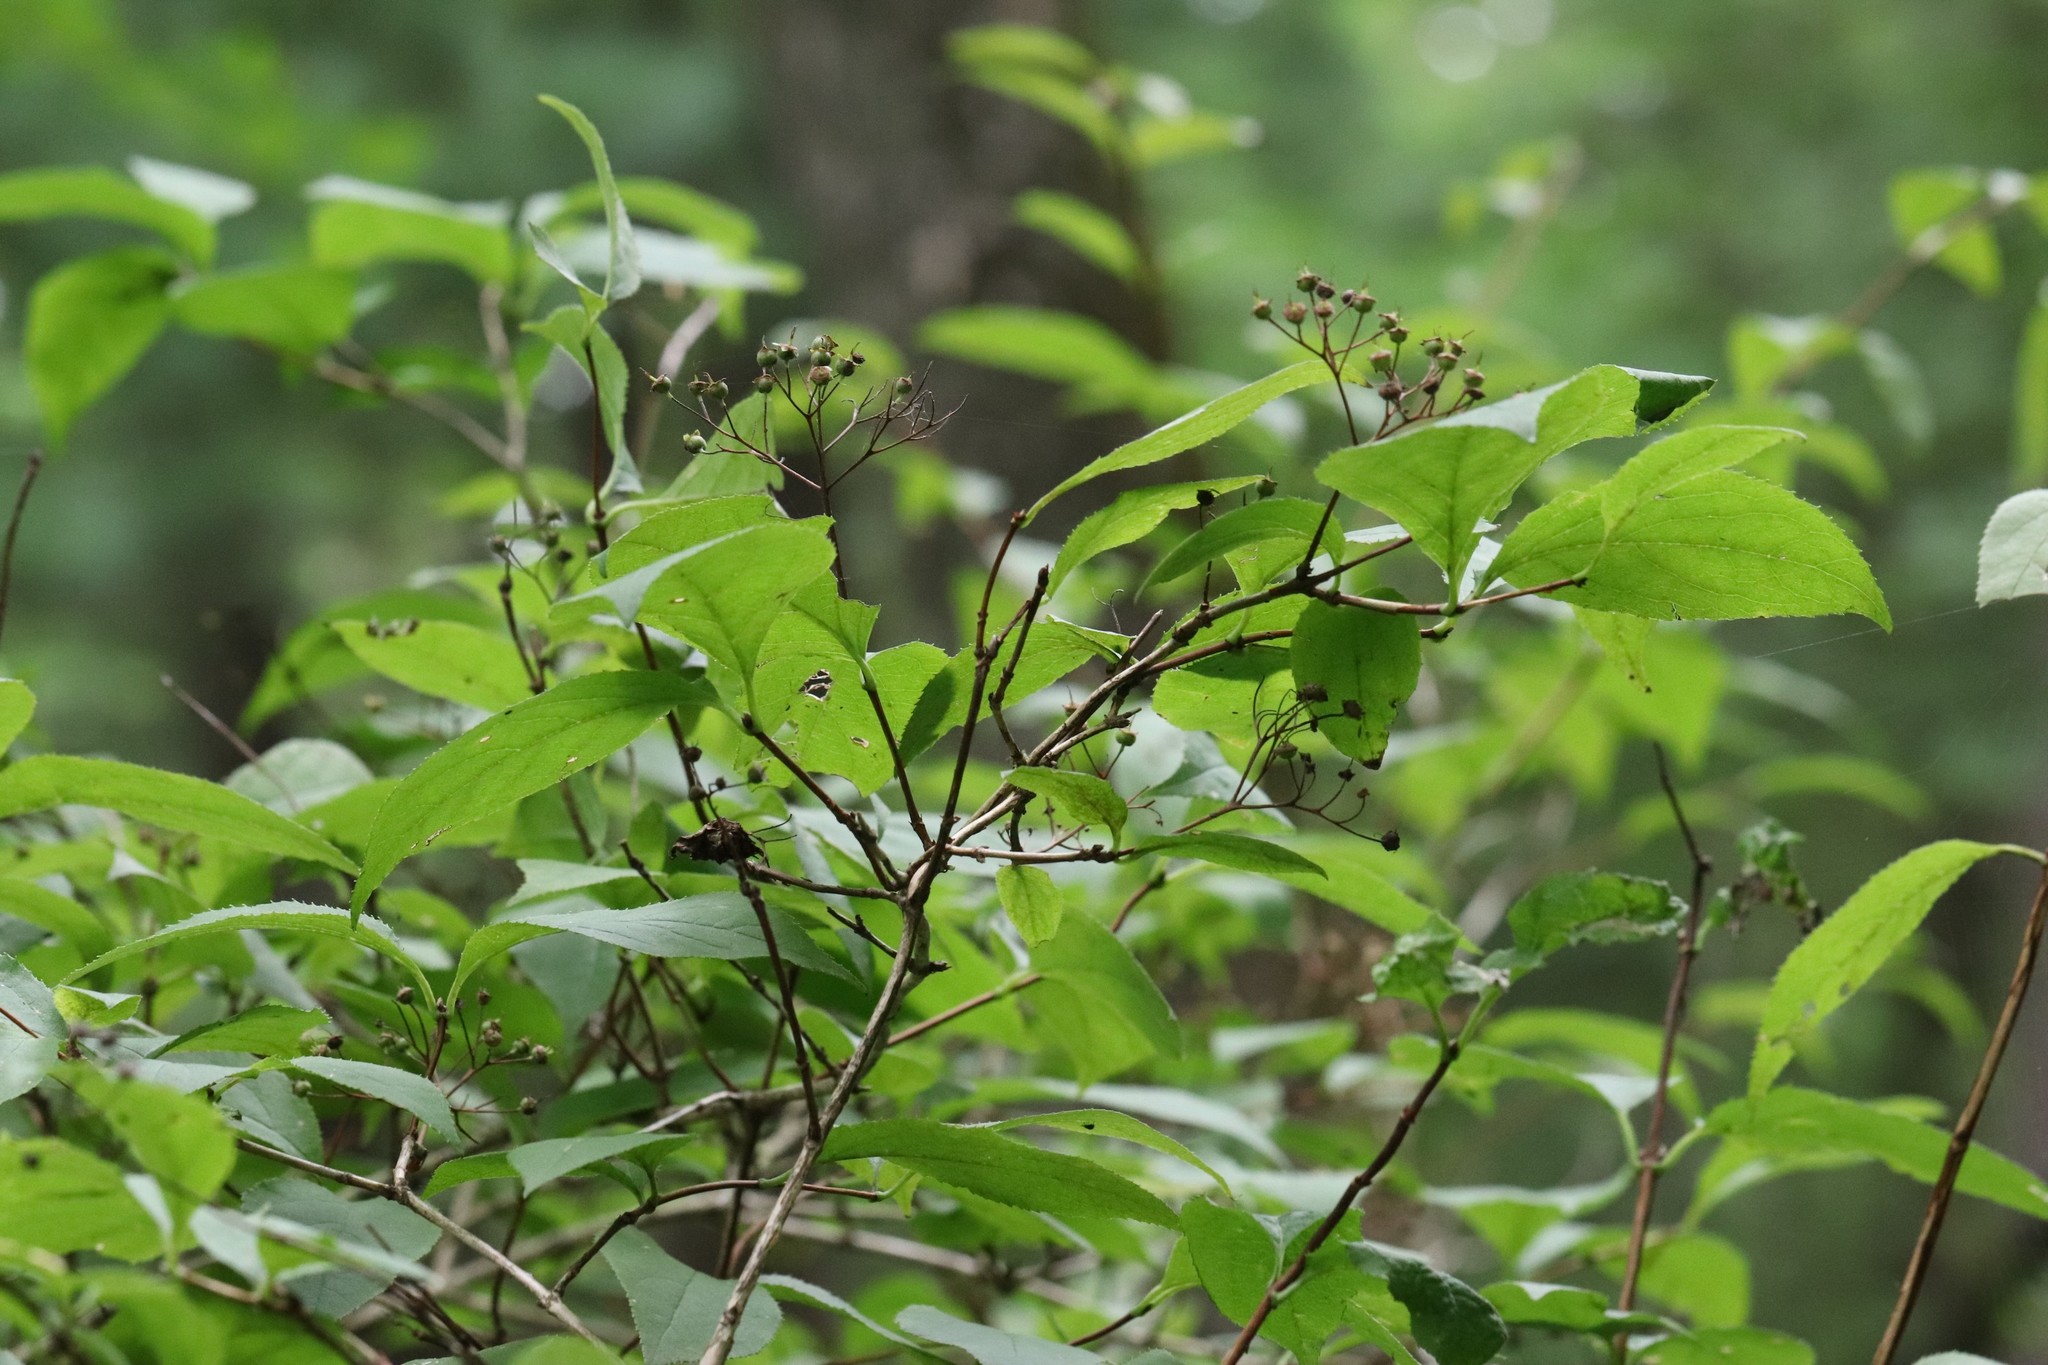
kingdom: Plantae
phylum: Tracheophyta
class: Magnoliopsida
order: Cornales
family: Hydrangeaceae
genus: Deutzia
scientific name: Deutzia parviflora
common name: Mongolian pride-of-rochester
